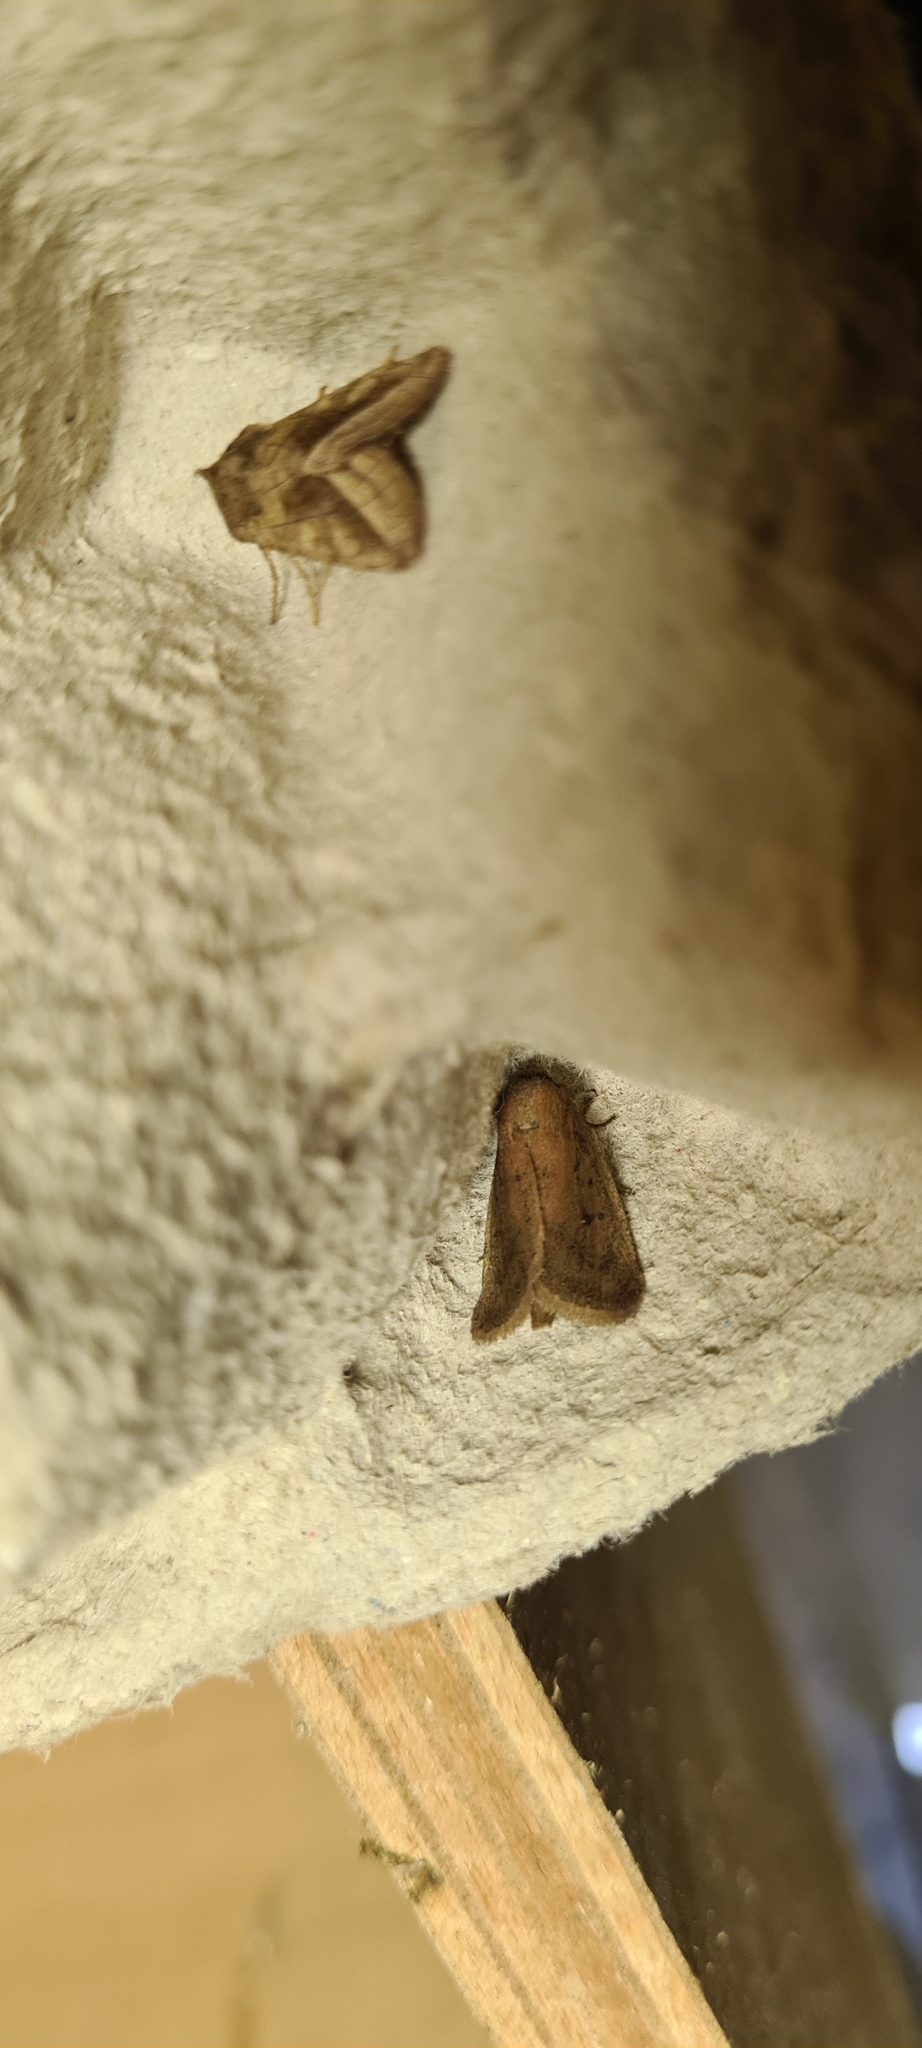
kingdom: Animalia
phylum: Arthropoda
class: Insecta
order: Lepidoptera
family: Noctuidae
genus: Lenisa
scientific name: Lenisa geminipuncta
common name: Twin-spotted wainscot
